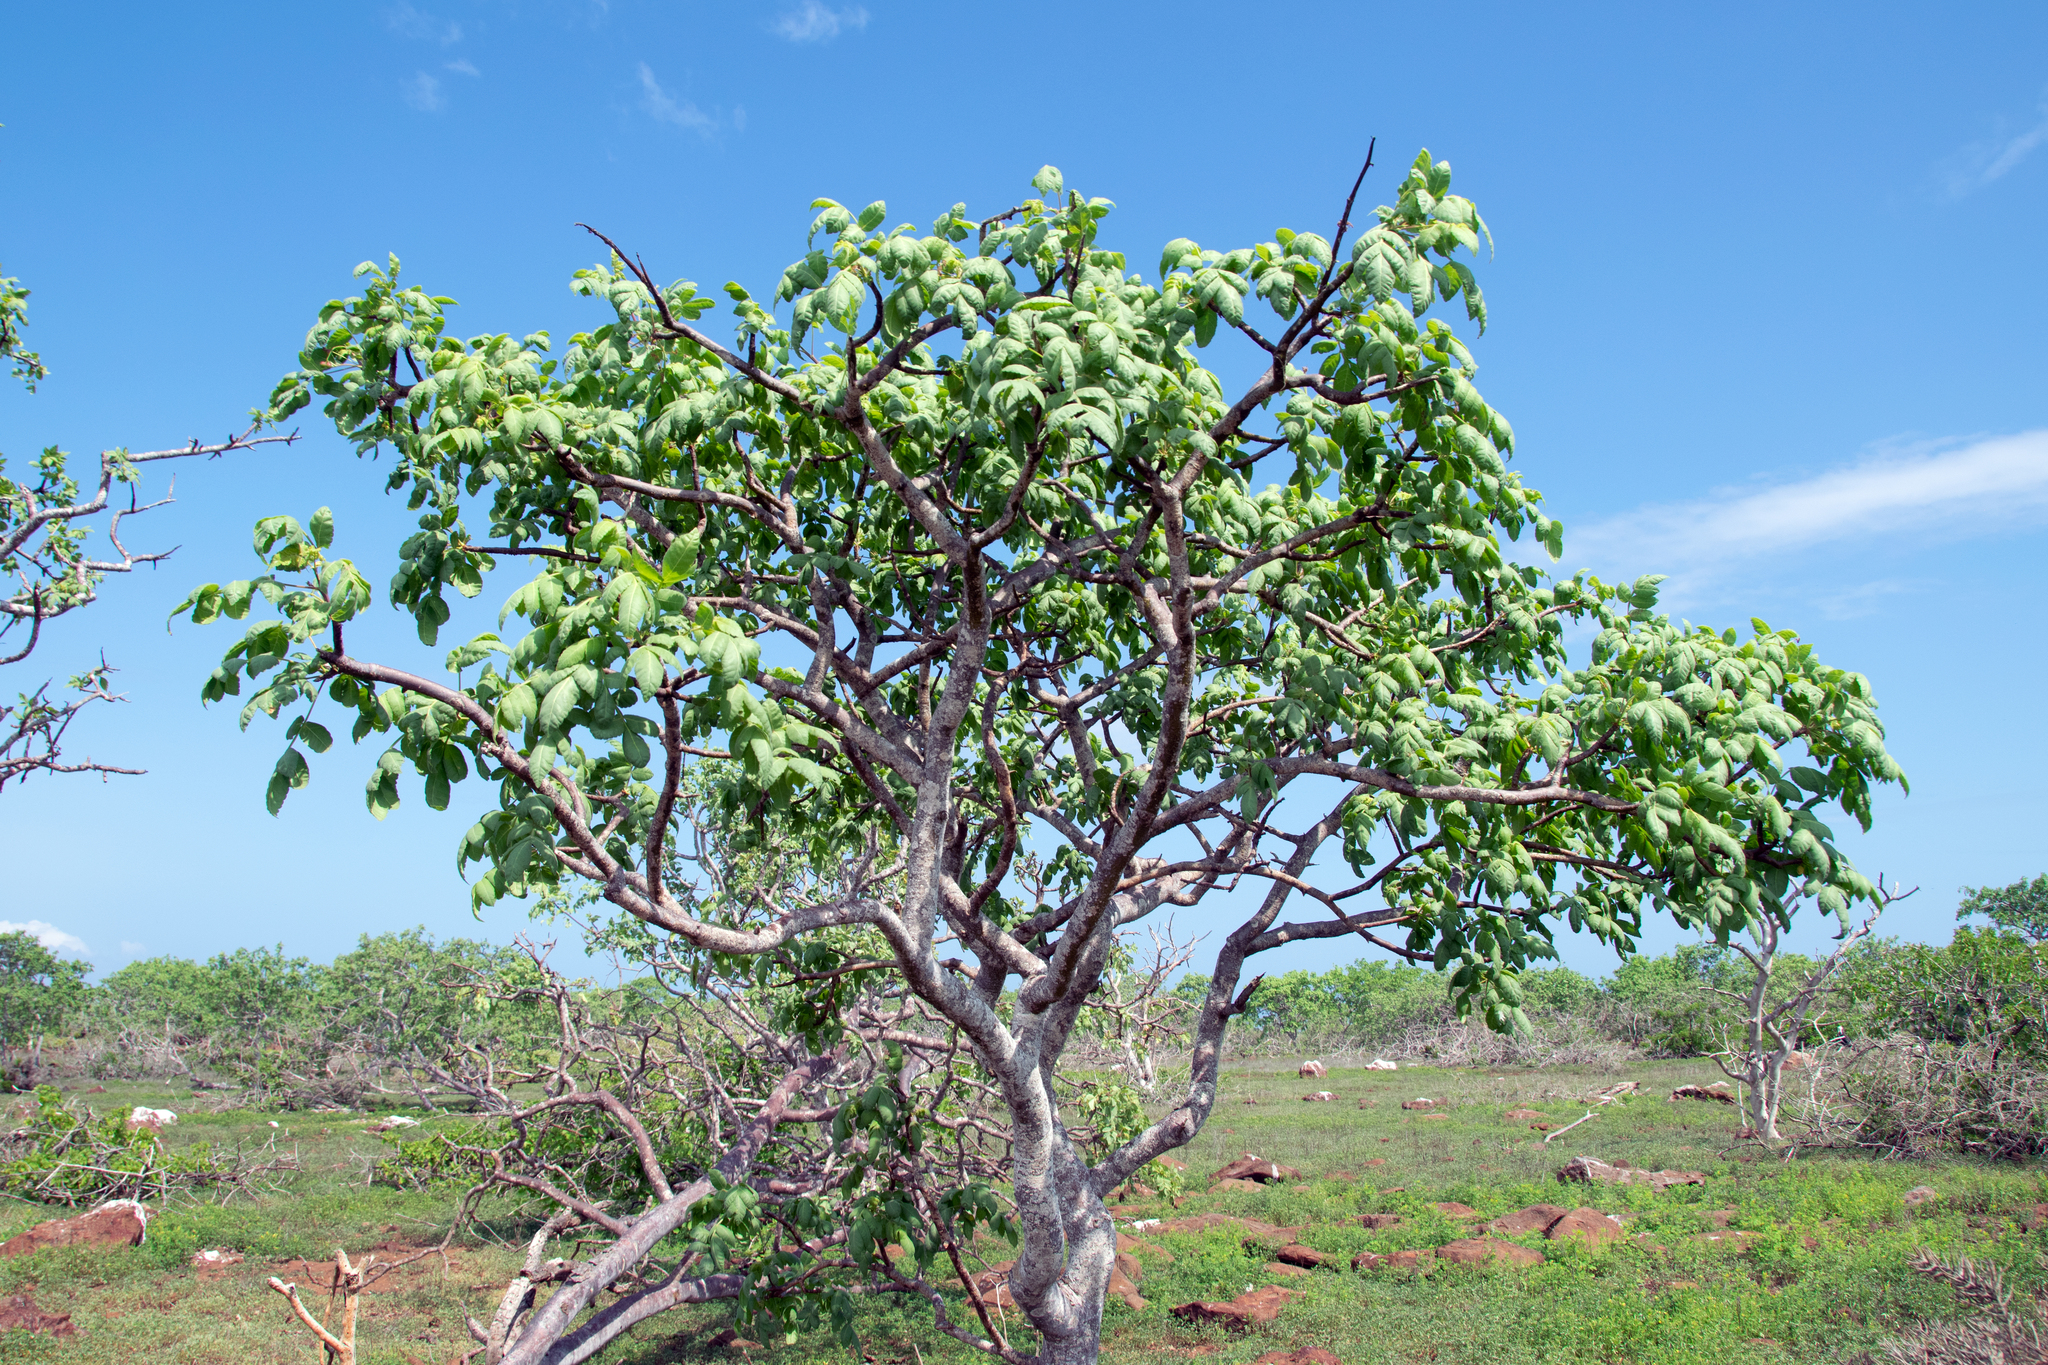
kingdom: Plantae
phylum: Tracheophyta
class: Magnoliopsida
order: Sapindales
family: Burseraceae
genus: Bursera
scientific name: Bursera graveolens
